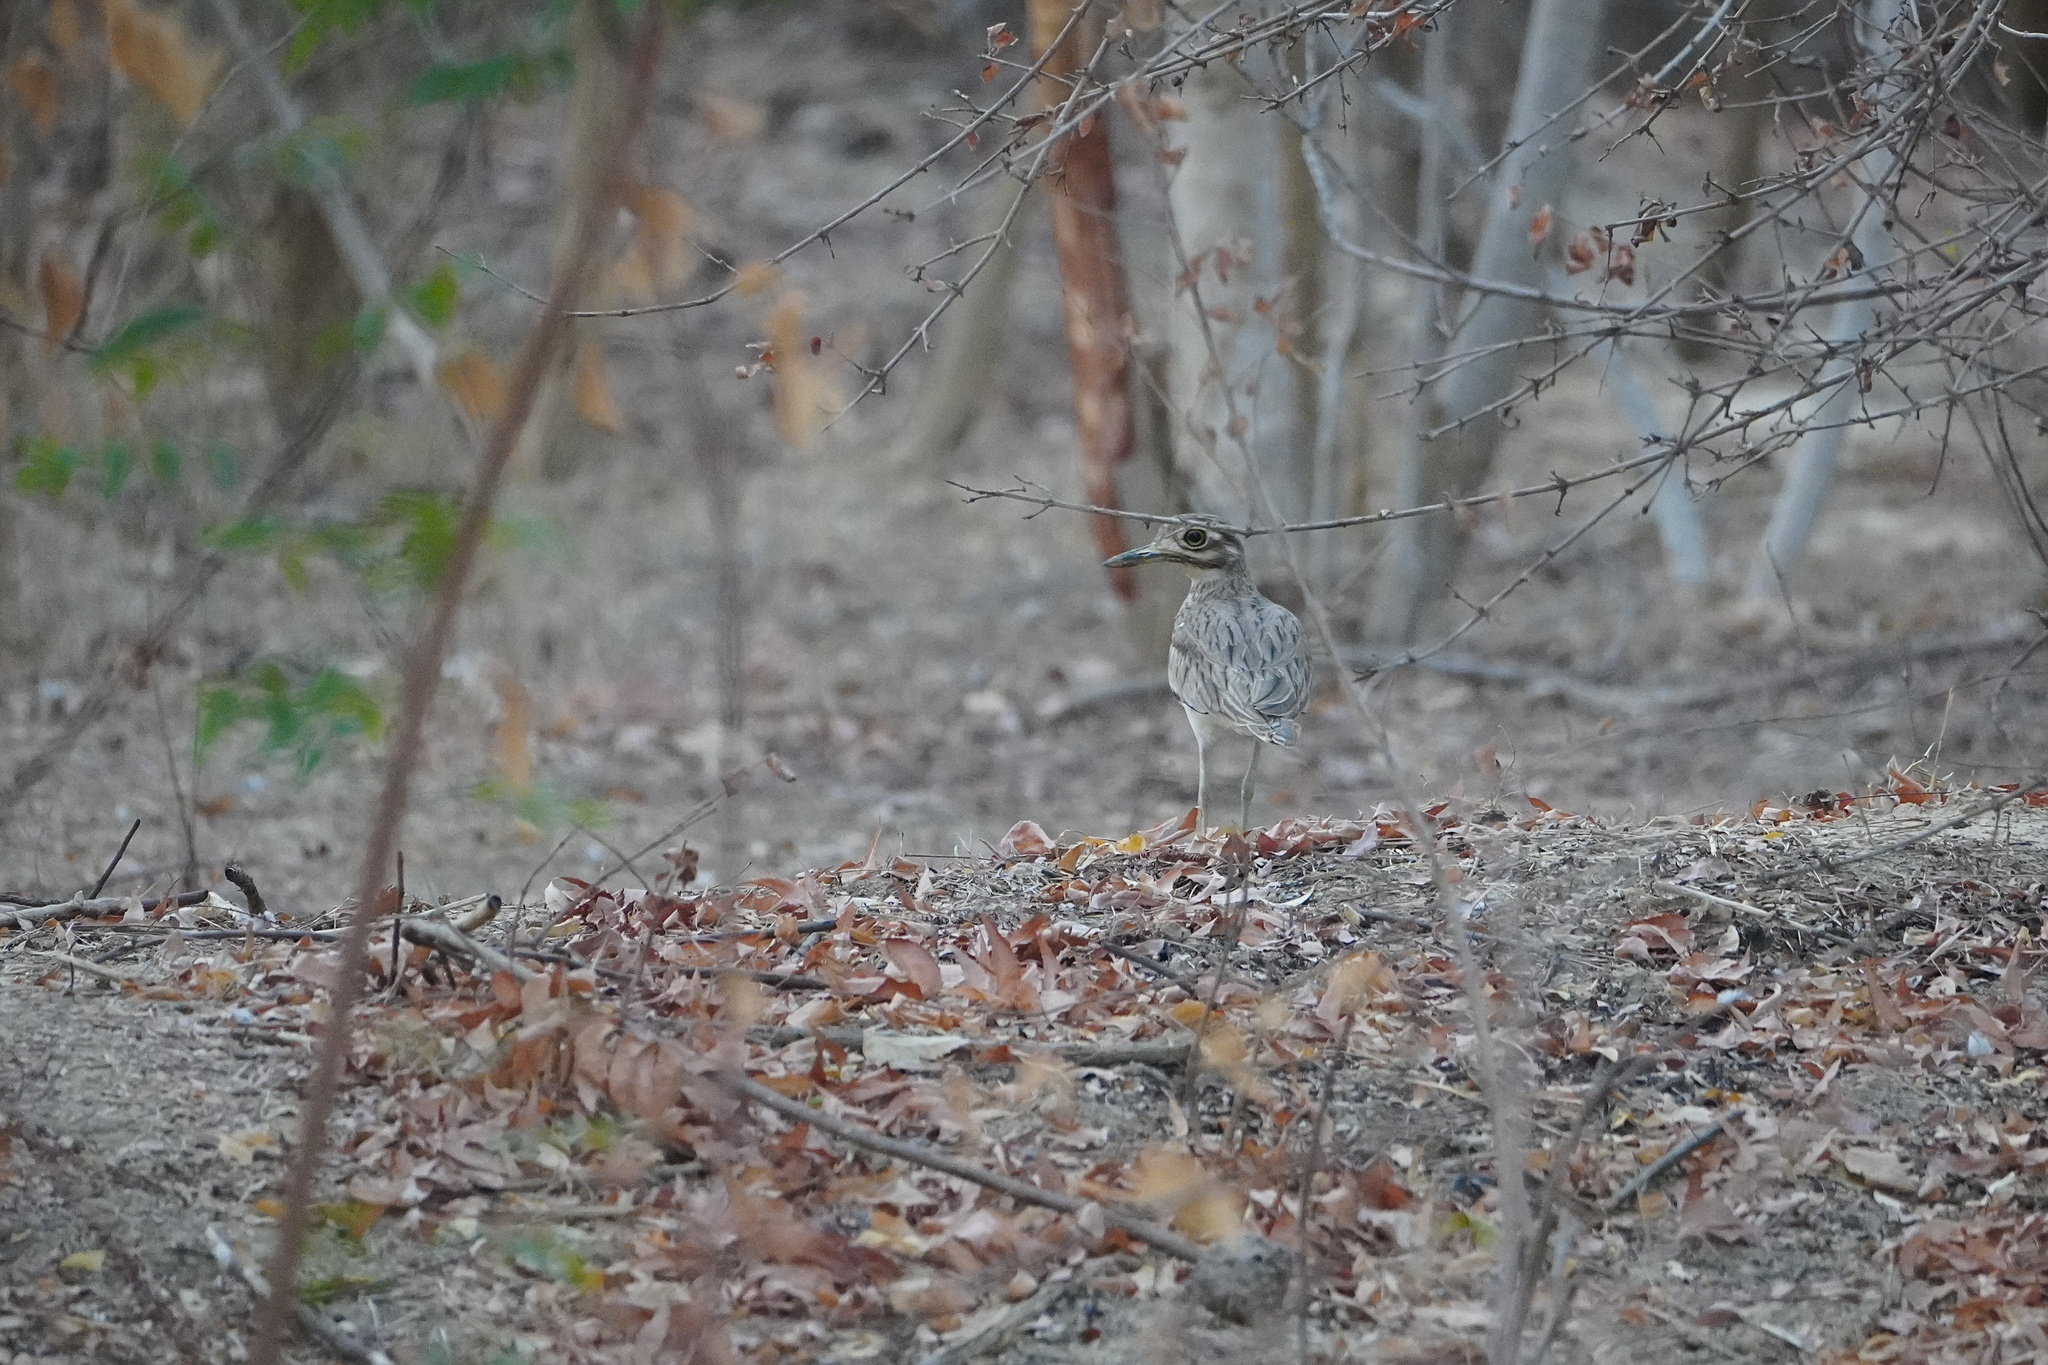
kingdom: Animalia
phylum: Chordata
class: Aves
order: Charadriiformes
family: Burhinidae
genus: Burhinus
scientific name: Burhinus senegalensis
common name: Senegal thick-knee
